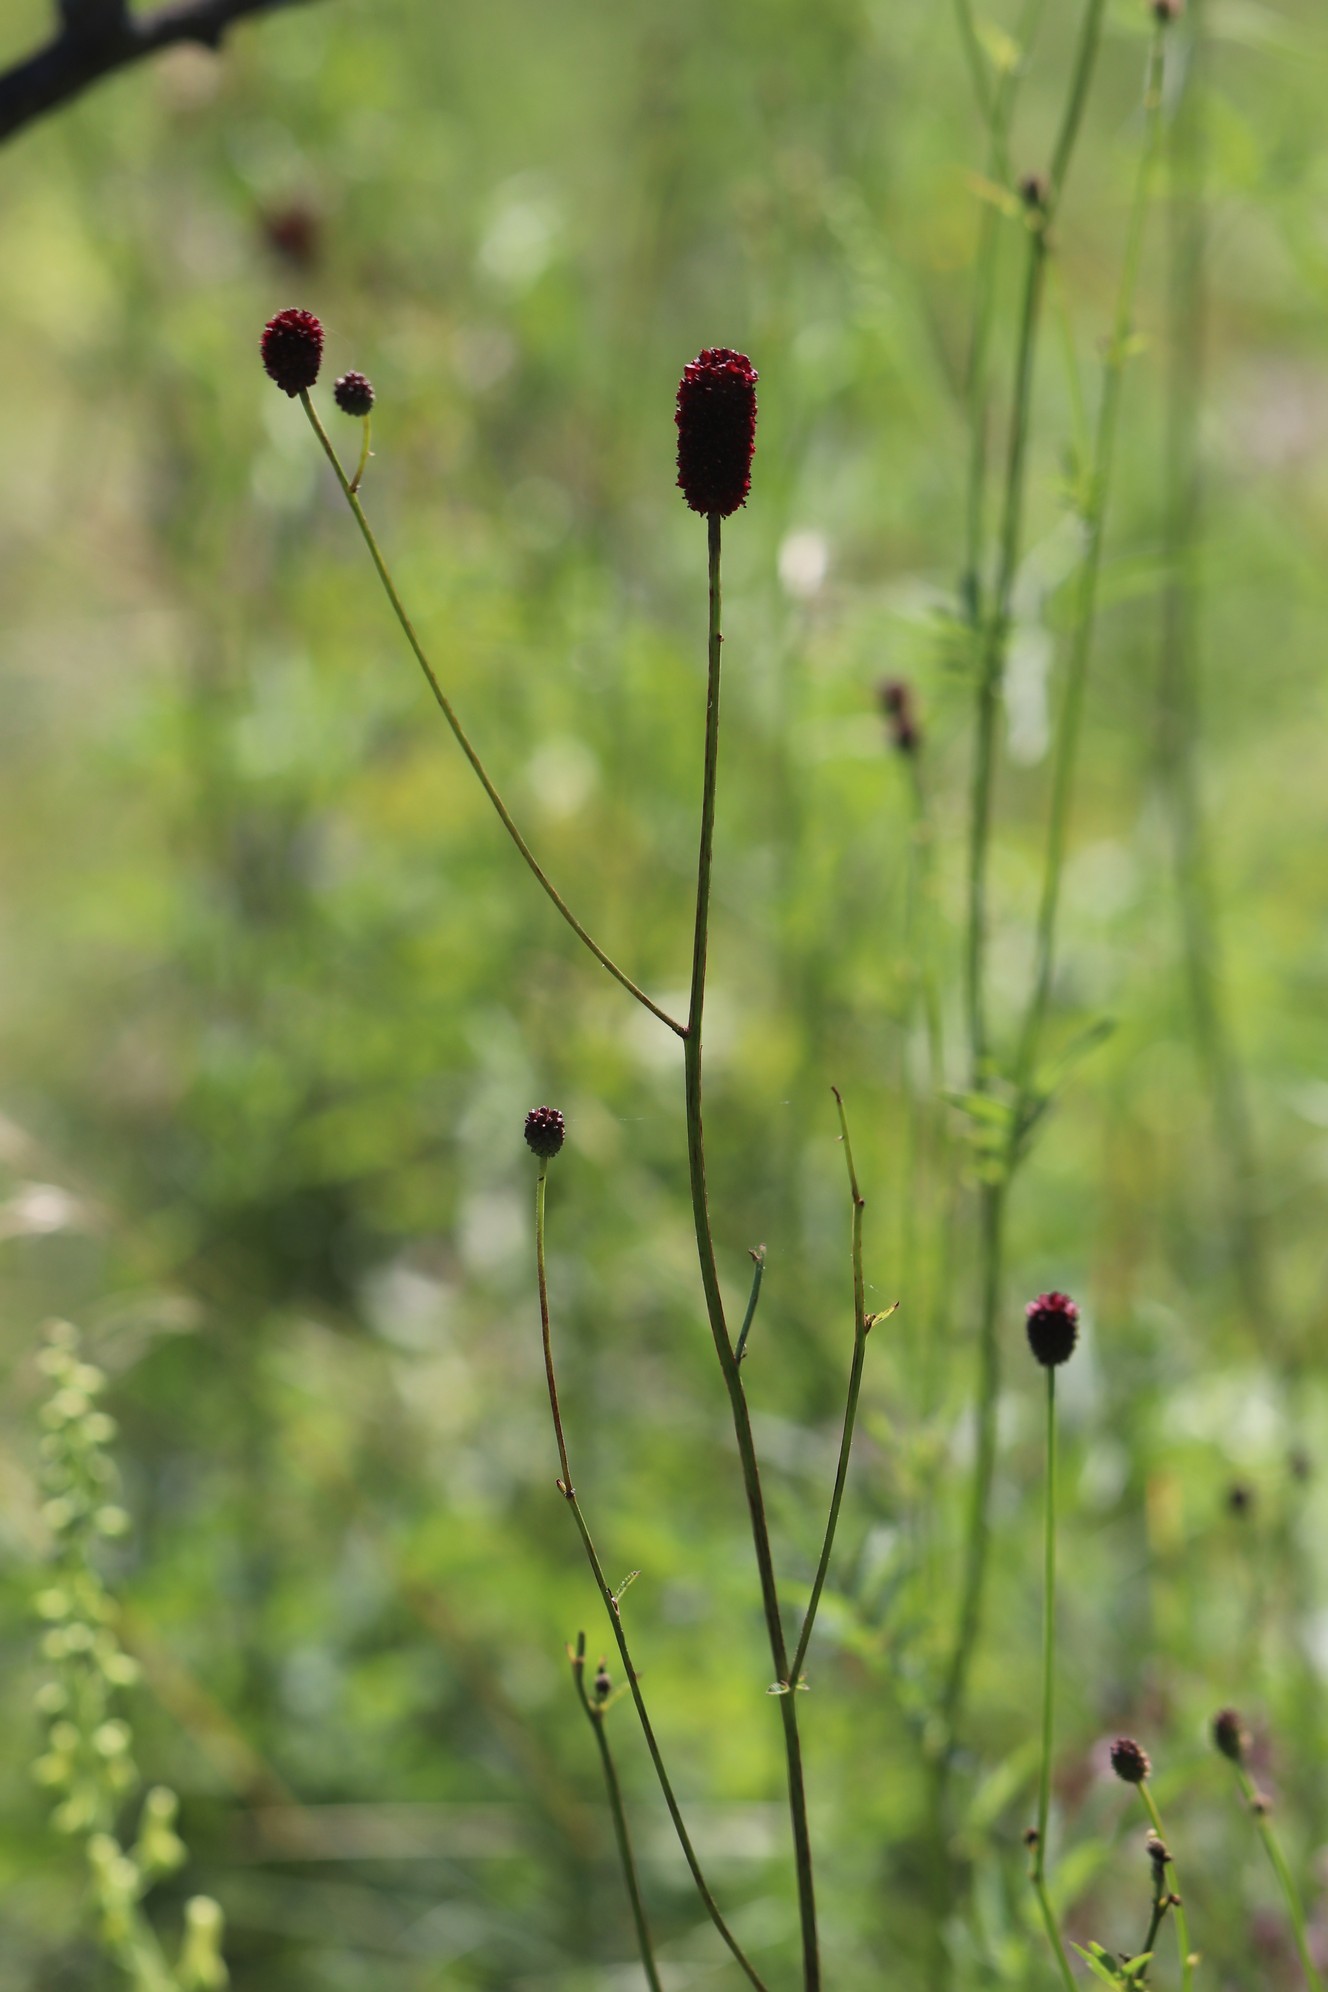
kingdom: Plantae
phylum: Tracheophyta
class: Magnoliopsida
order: Rosales
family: Rosaceae
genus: Sanguisorba
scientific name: Sanguisorba officinalis
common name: Great burnet
